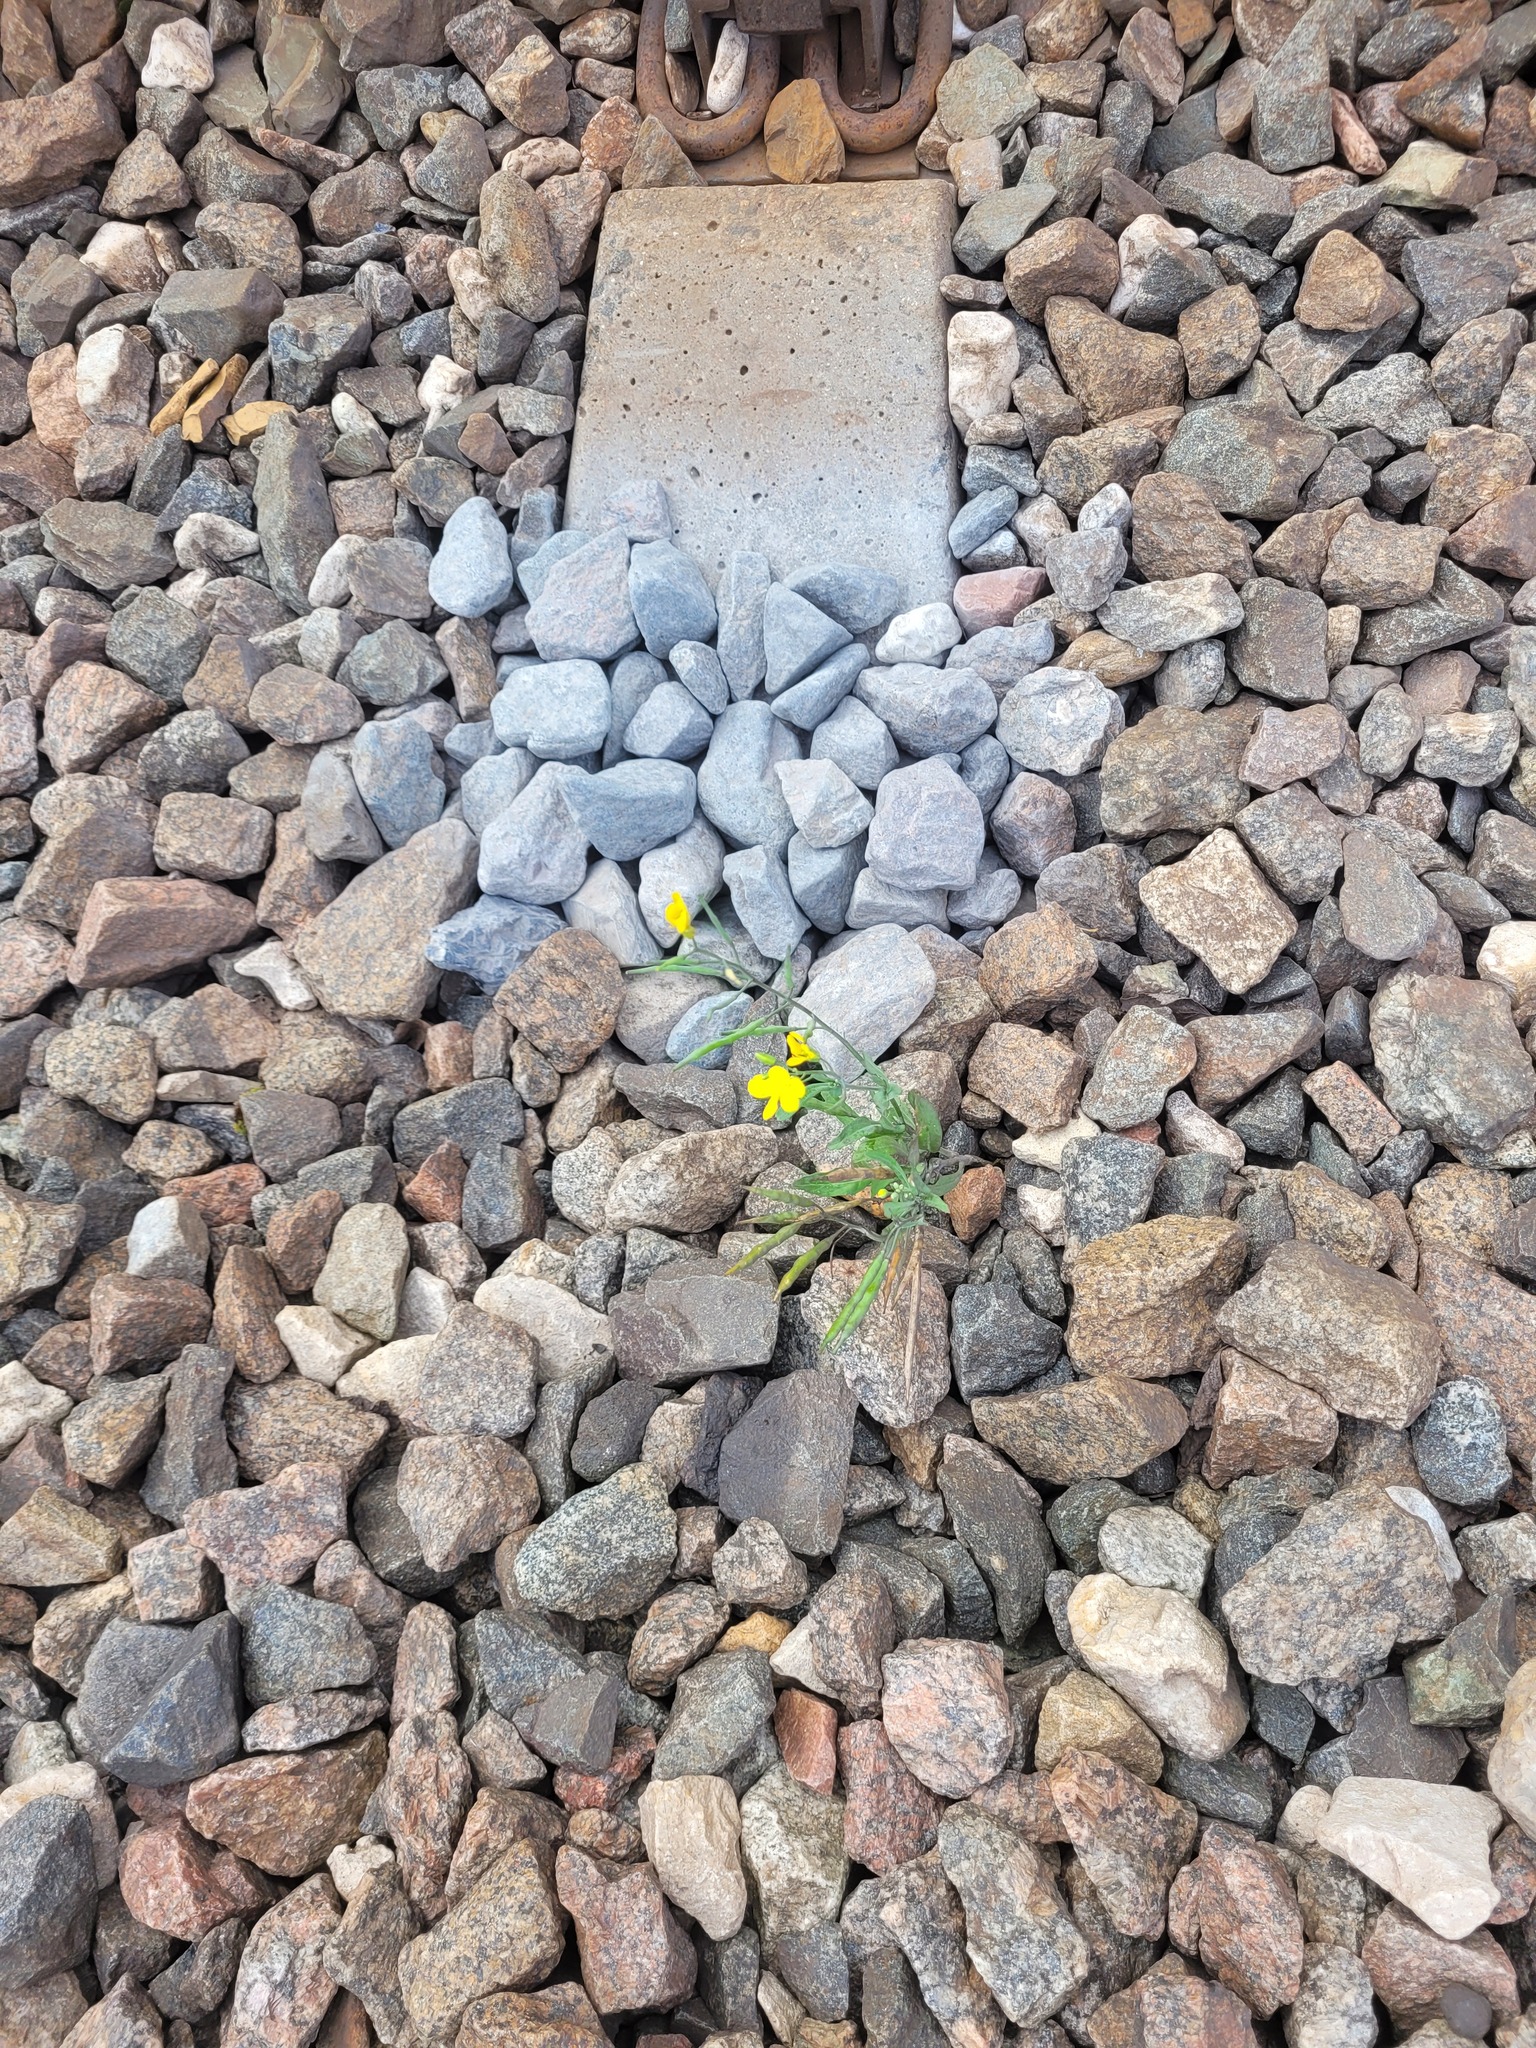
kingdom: Plantae
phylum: Tracheophyta
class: Magnoliopsida
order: Brassicales
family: Brassicaceae
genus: Brassica
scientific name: Brassica napus
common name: Rape
